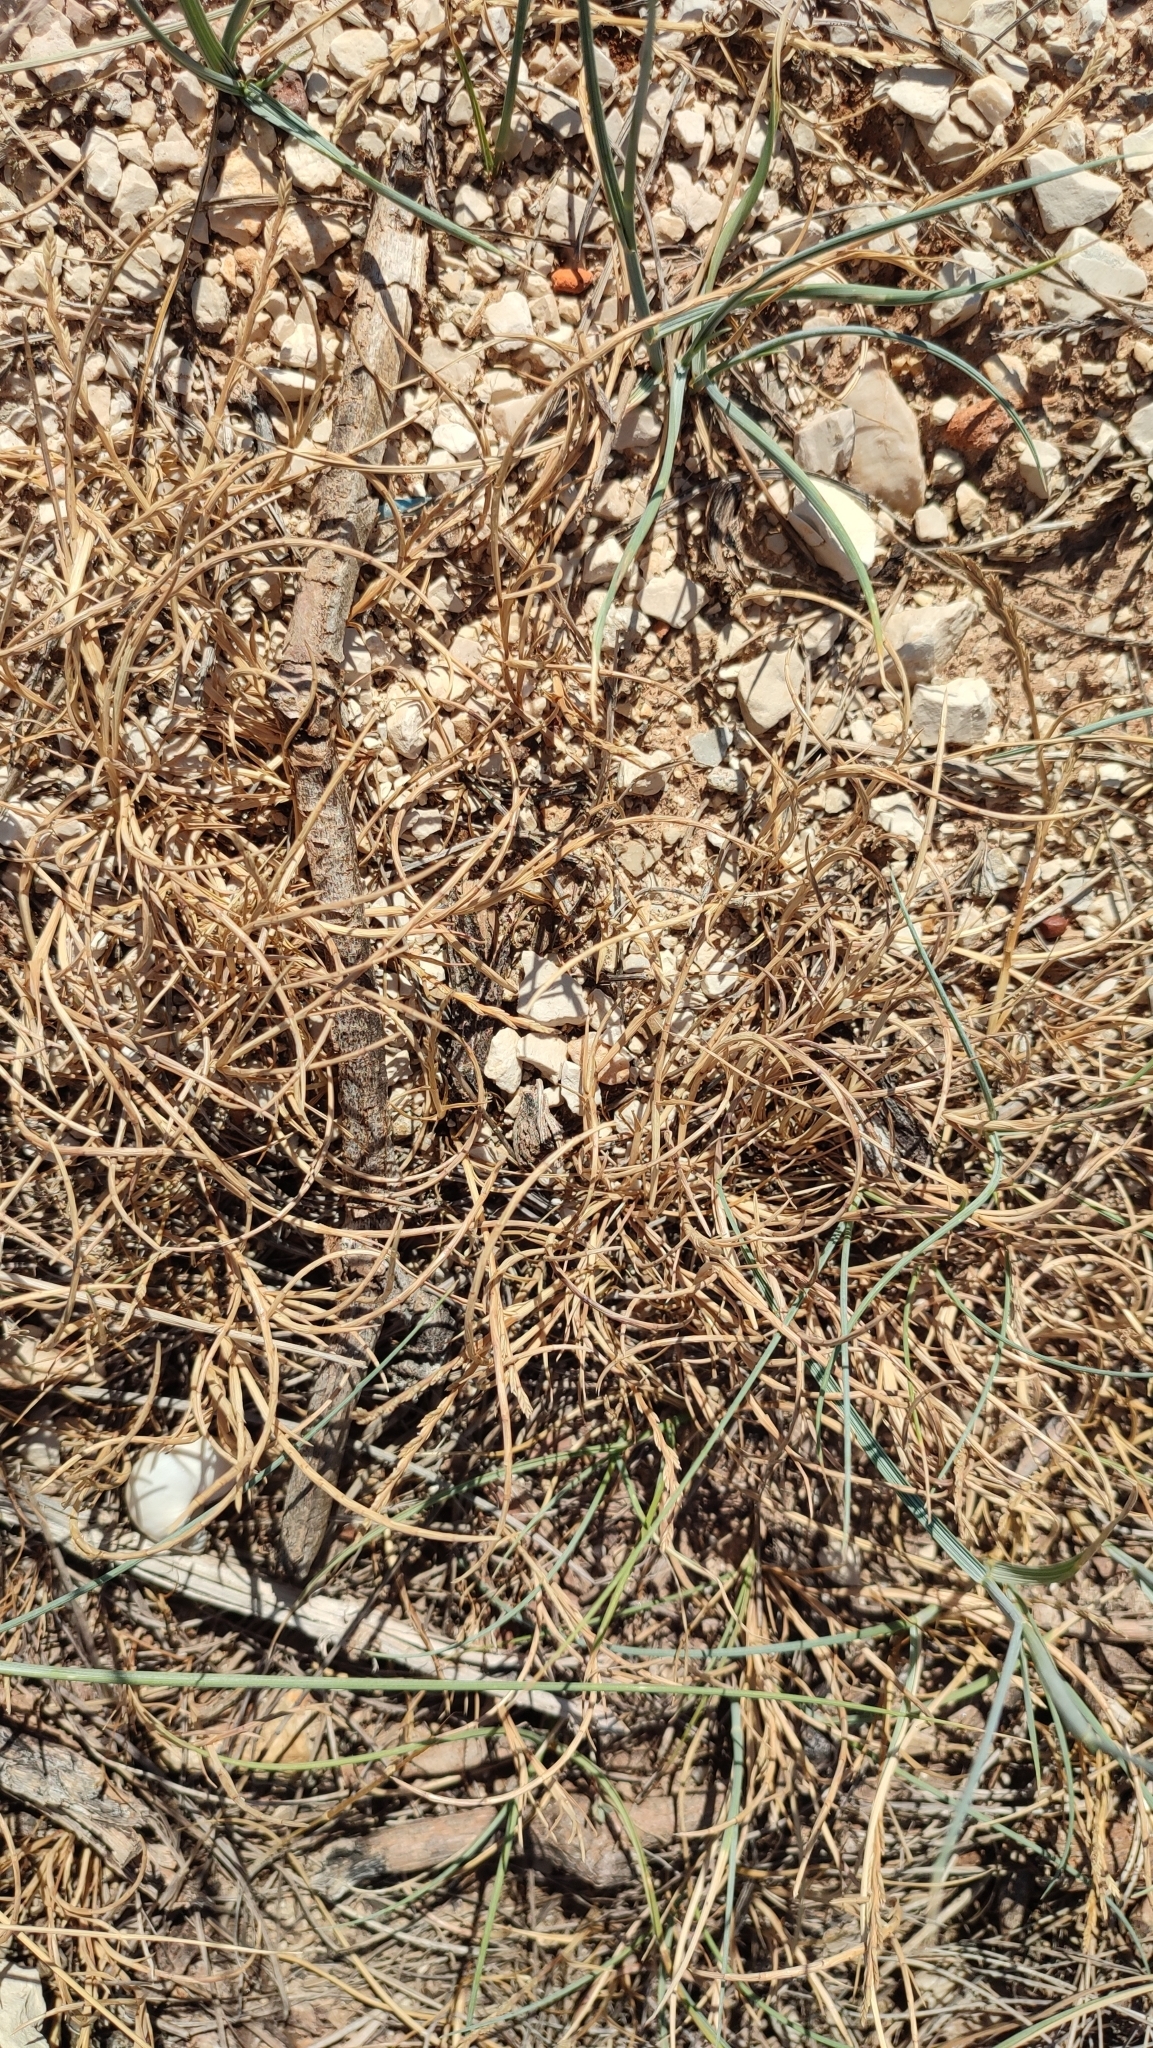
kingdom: Plantae
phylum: Tracheophyta
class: Liliopsida
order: Poales
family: Poaceae
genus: Parapholis
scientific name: Parapholis incurva
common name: Curved sicklegrass
